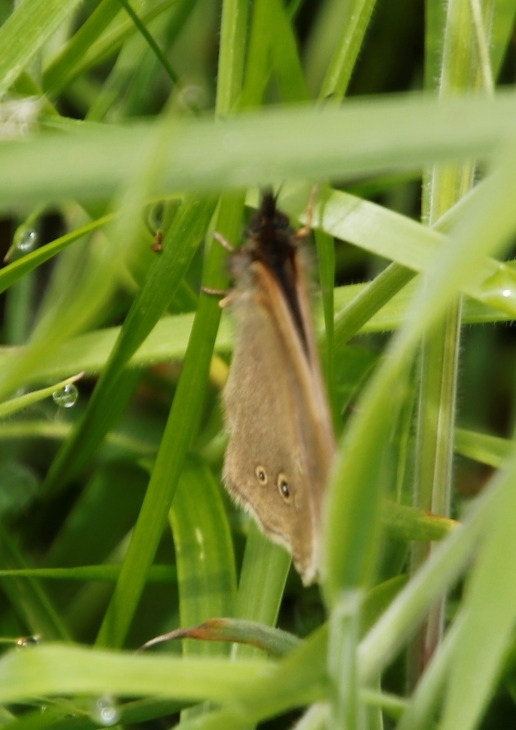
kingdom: Animalia
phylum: Arthropoda
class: Insecta
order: Lepidoptera
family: Nymphalidae
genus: Aphantopus
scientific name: Aphantopus hyperantus
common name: Ringlet
